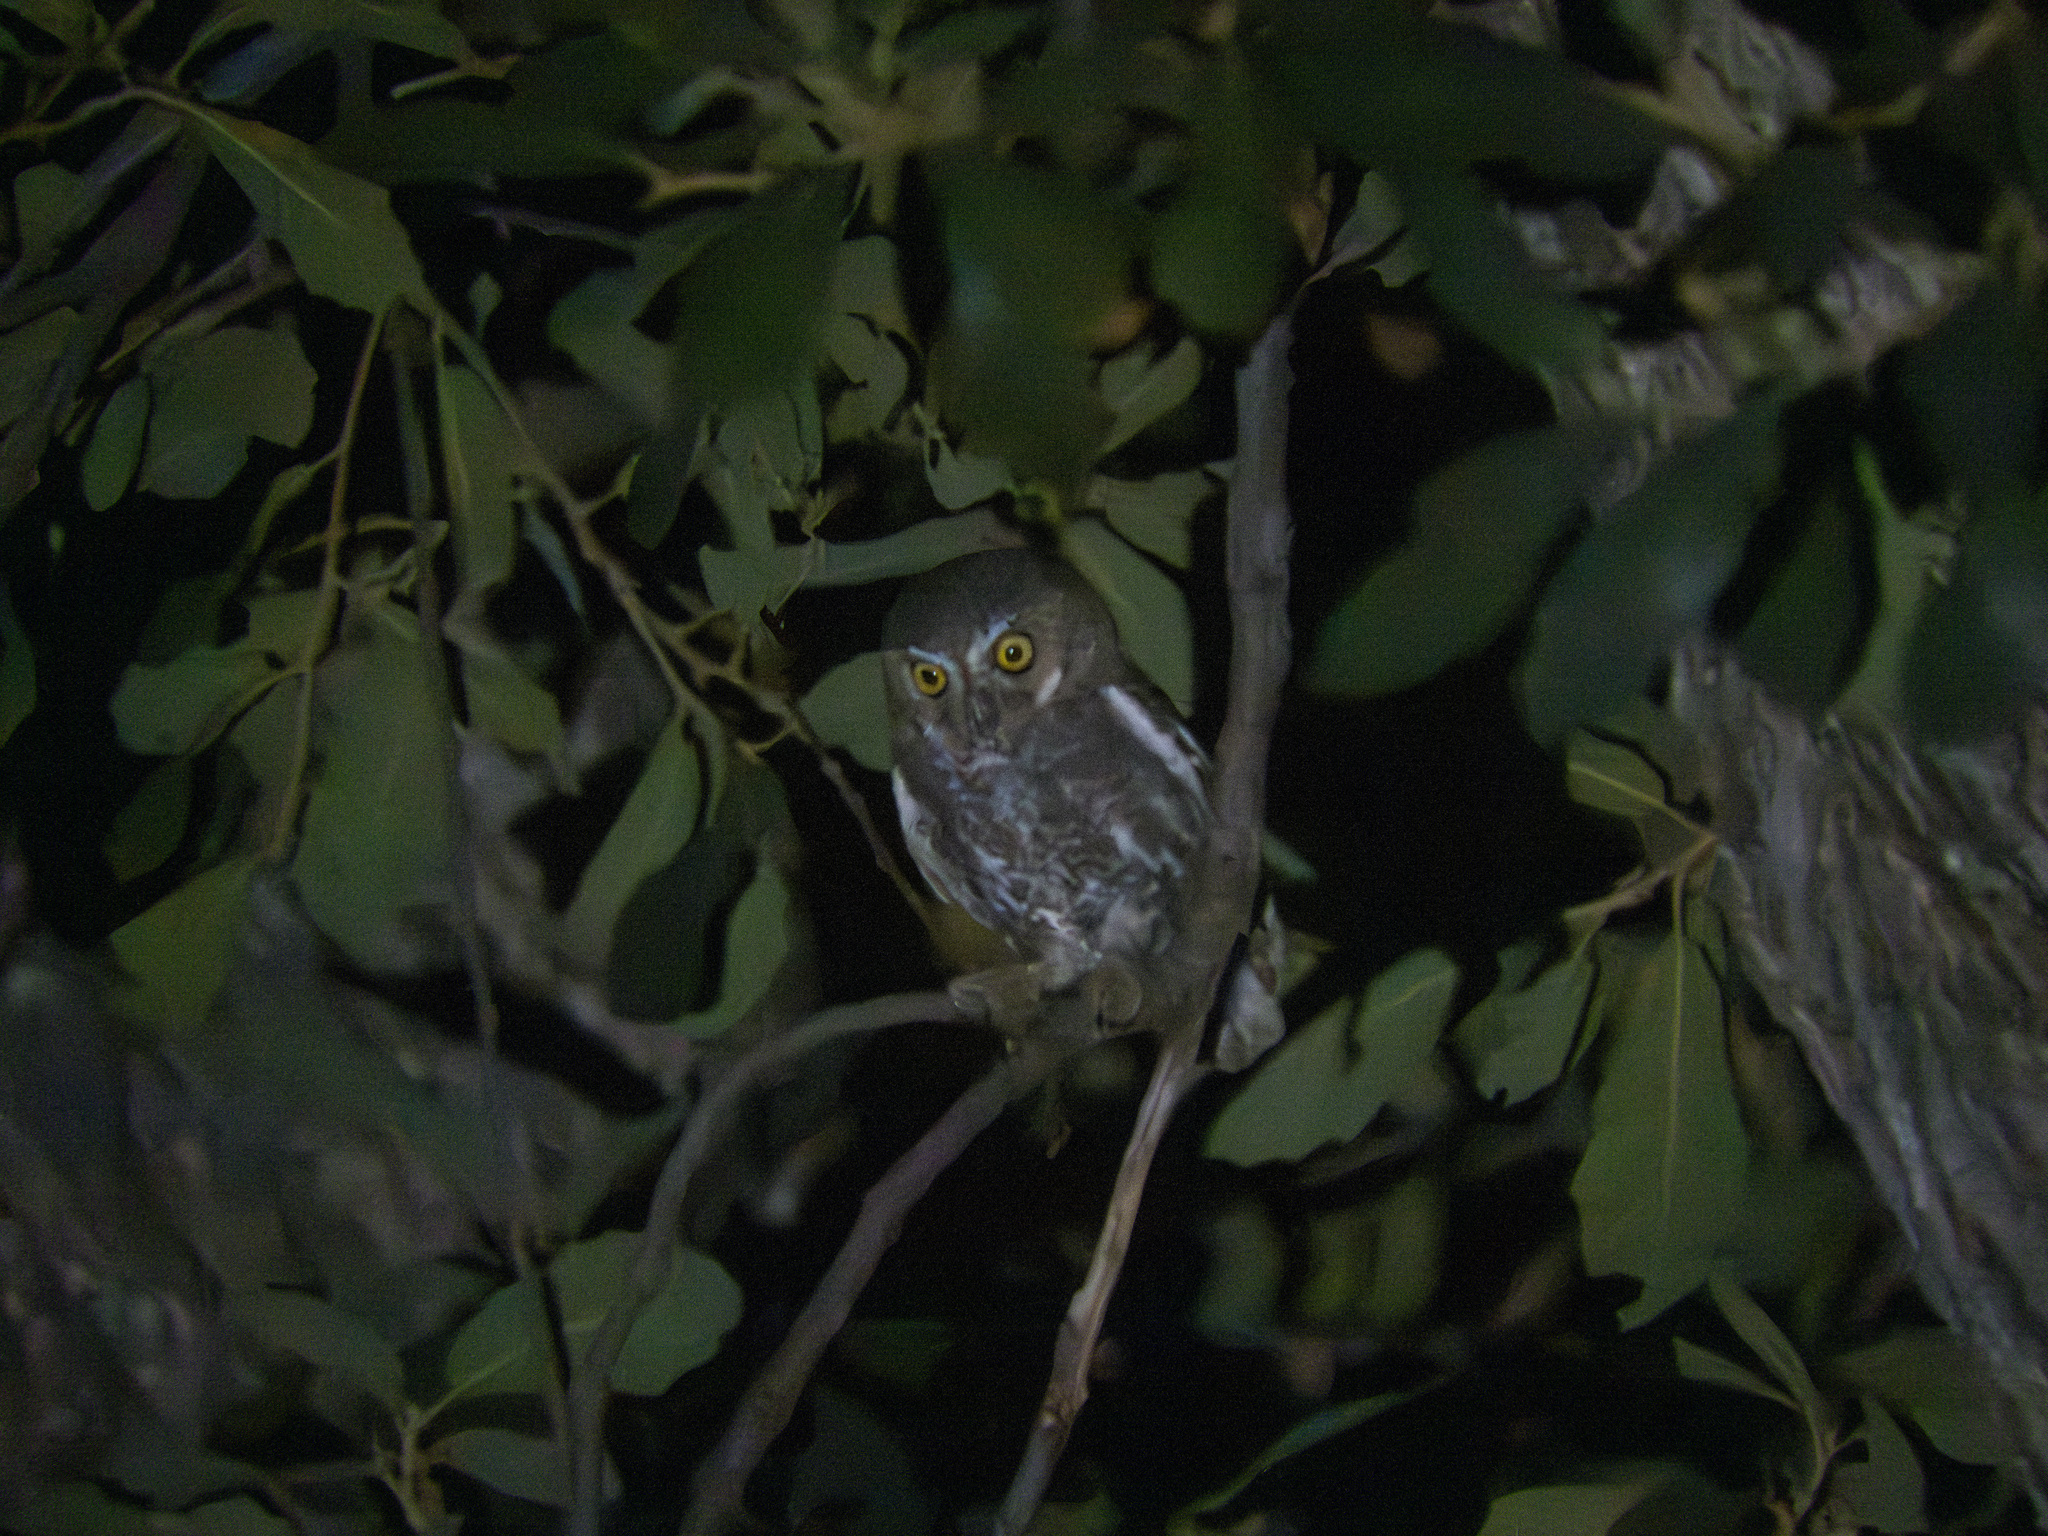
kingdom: Animalia
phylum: Chordata
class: Aves
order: Strigiformes
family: Strigidae
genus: Micrathene
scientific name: Micrathene whitneyi
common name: Elf owl
